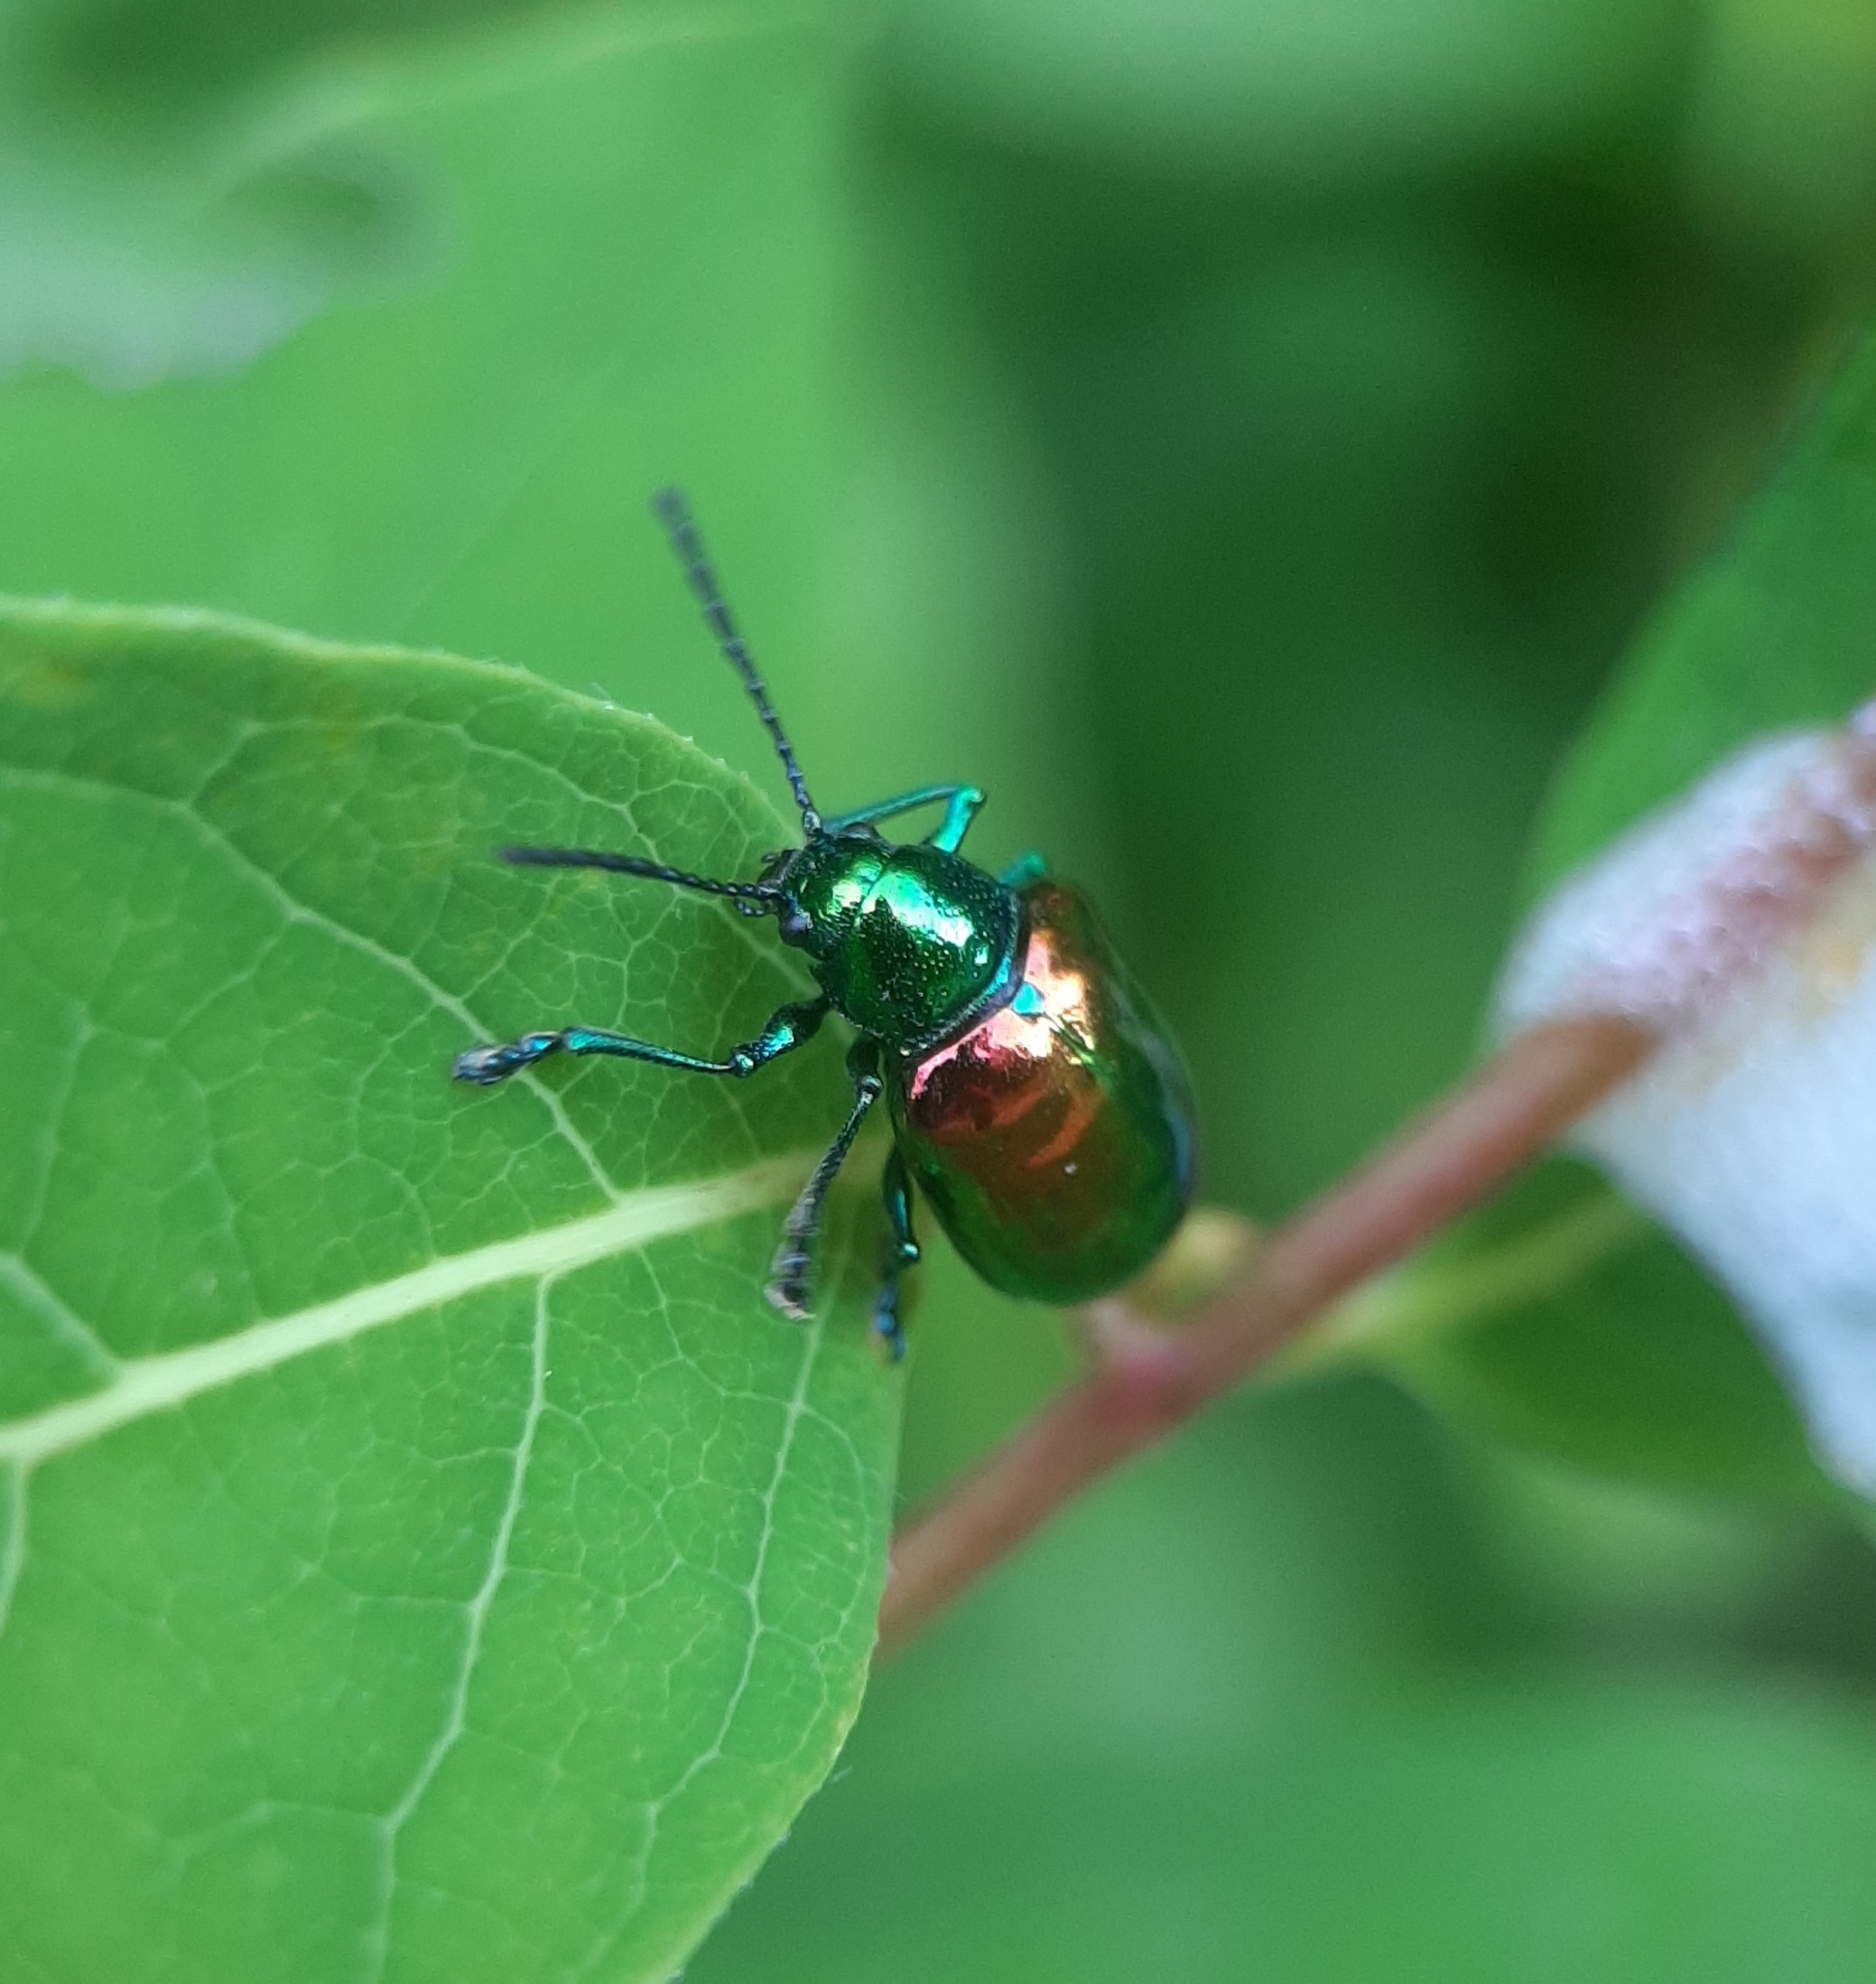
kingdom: Animalia
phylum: Arthropoda
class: Insecta
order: Coleoptera
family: Chrysomelidae
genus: Chrysochus
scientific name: Chrysochus auratus
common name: Dogbane leaf beetle
